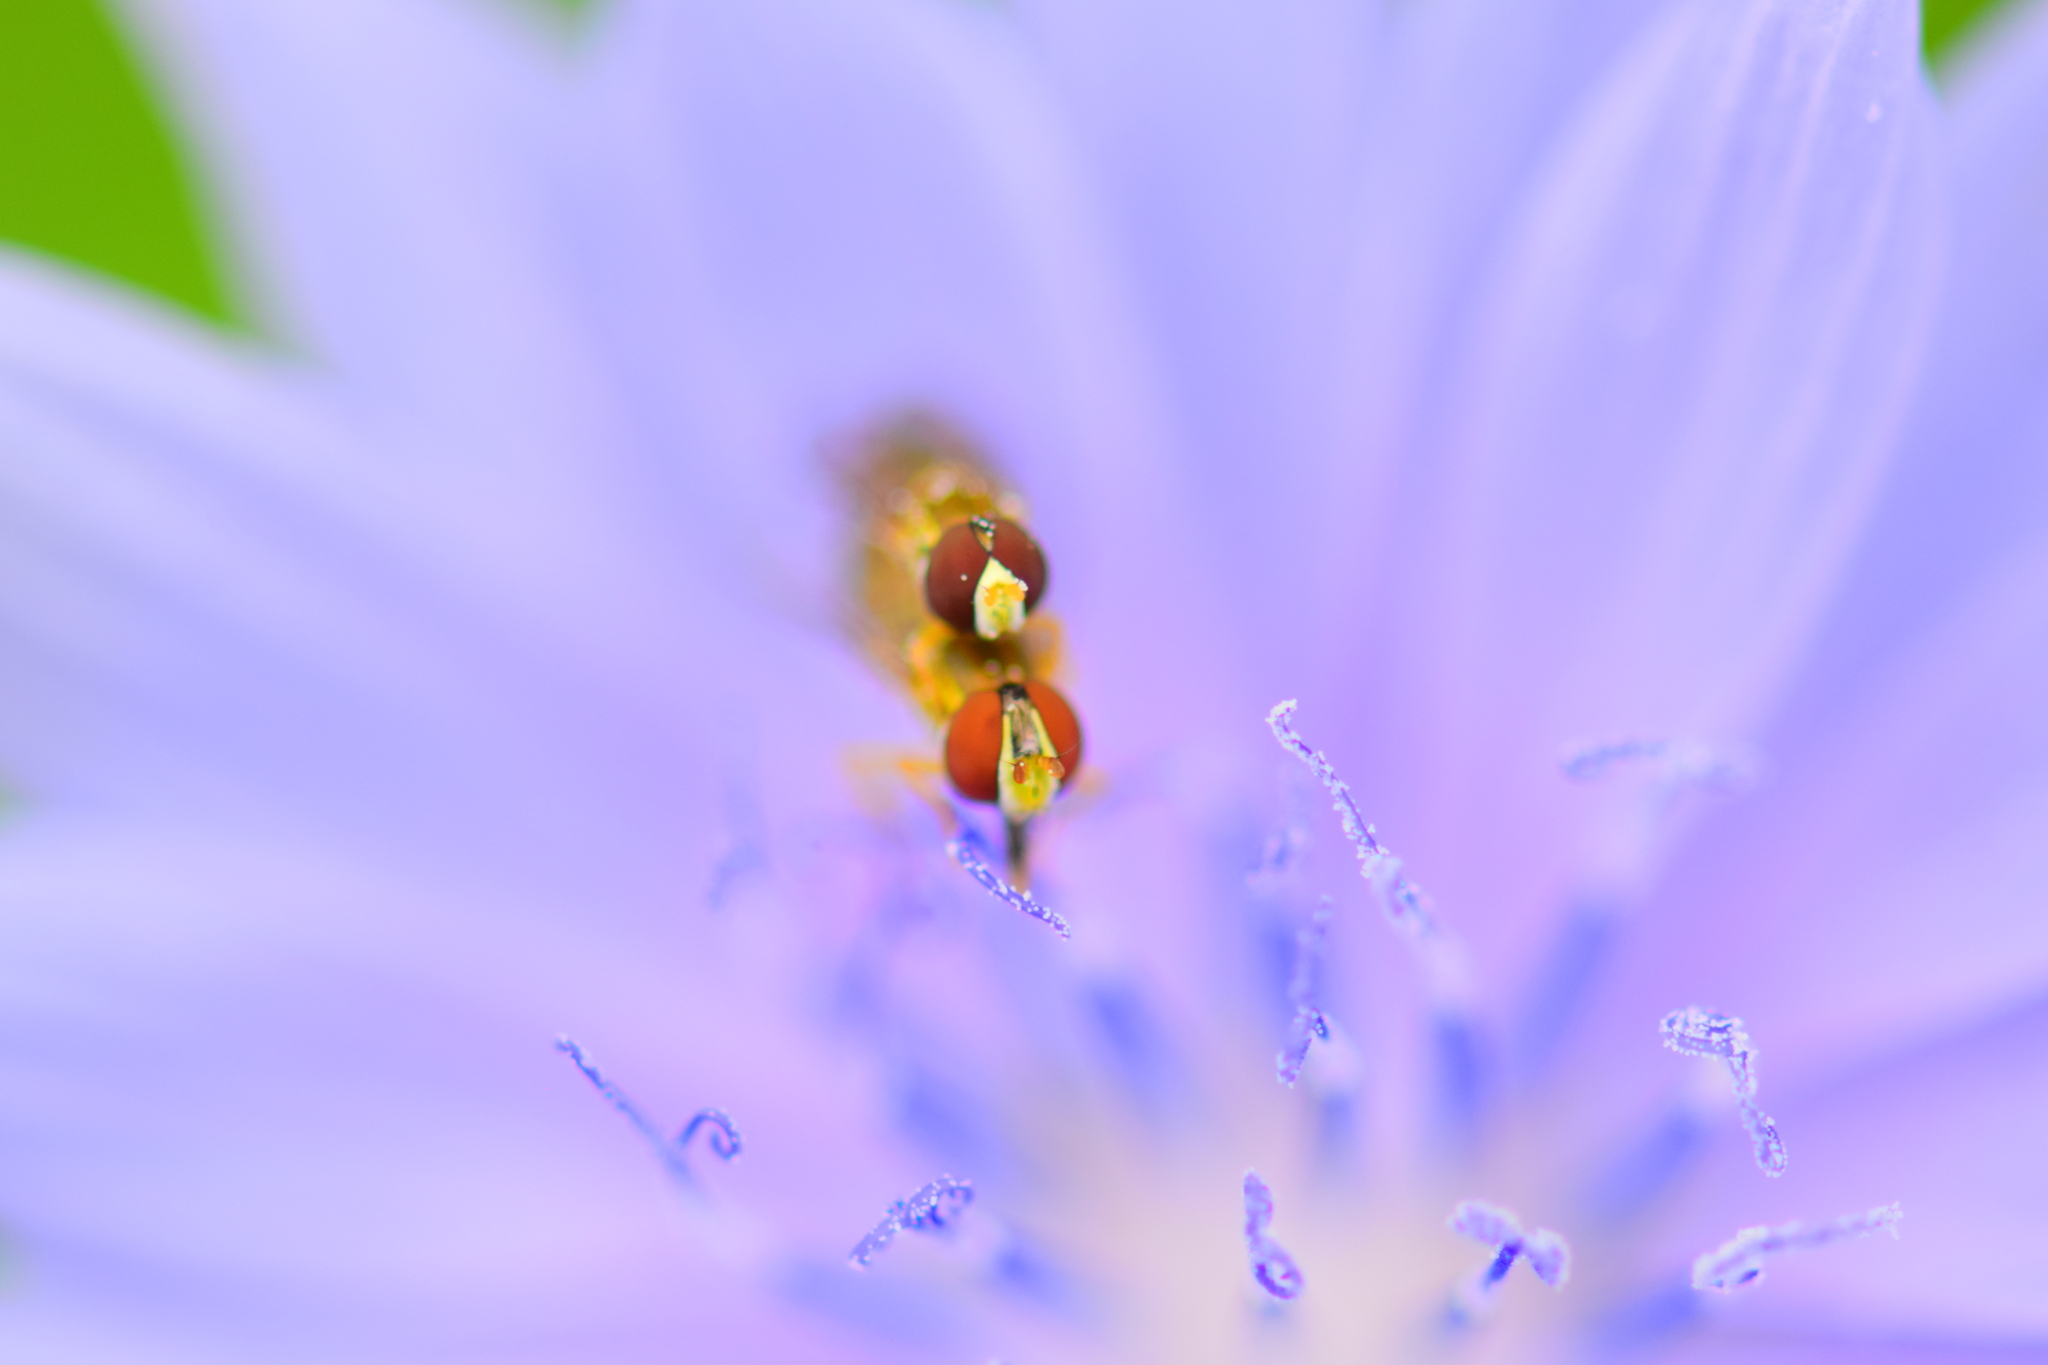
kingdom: Animalia
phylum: Arthropoda
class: Insecta
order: Diptera
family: Syrphidae
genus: Toxomerus
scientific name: Toxomerus marginatus
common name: Syrphid fly
